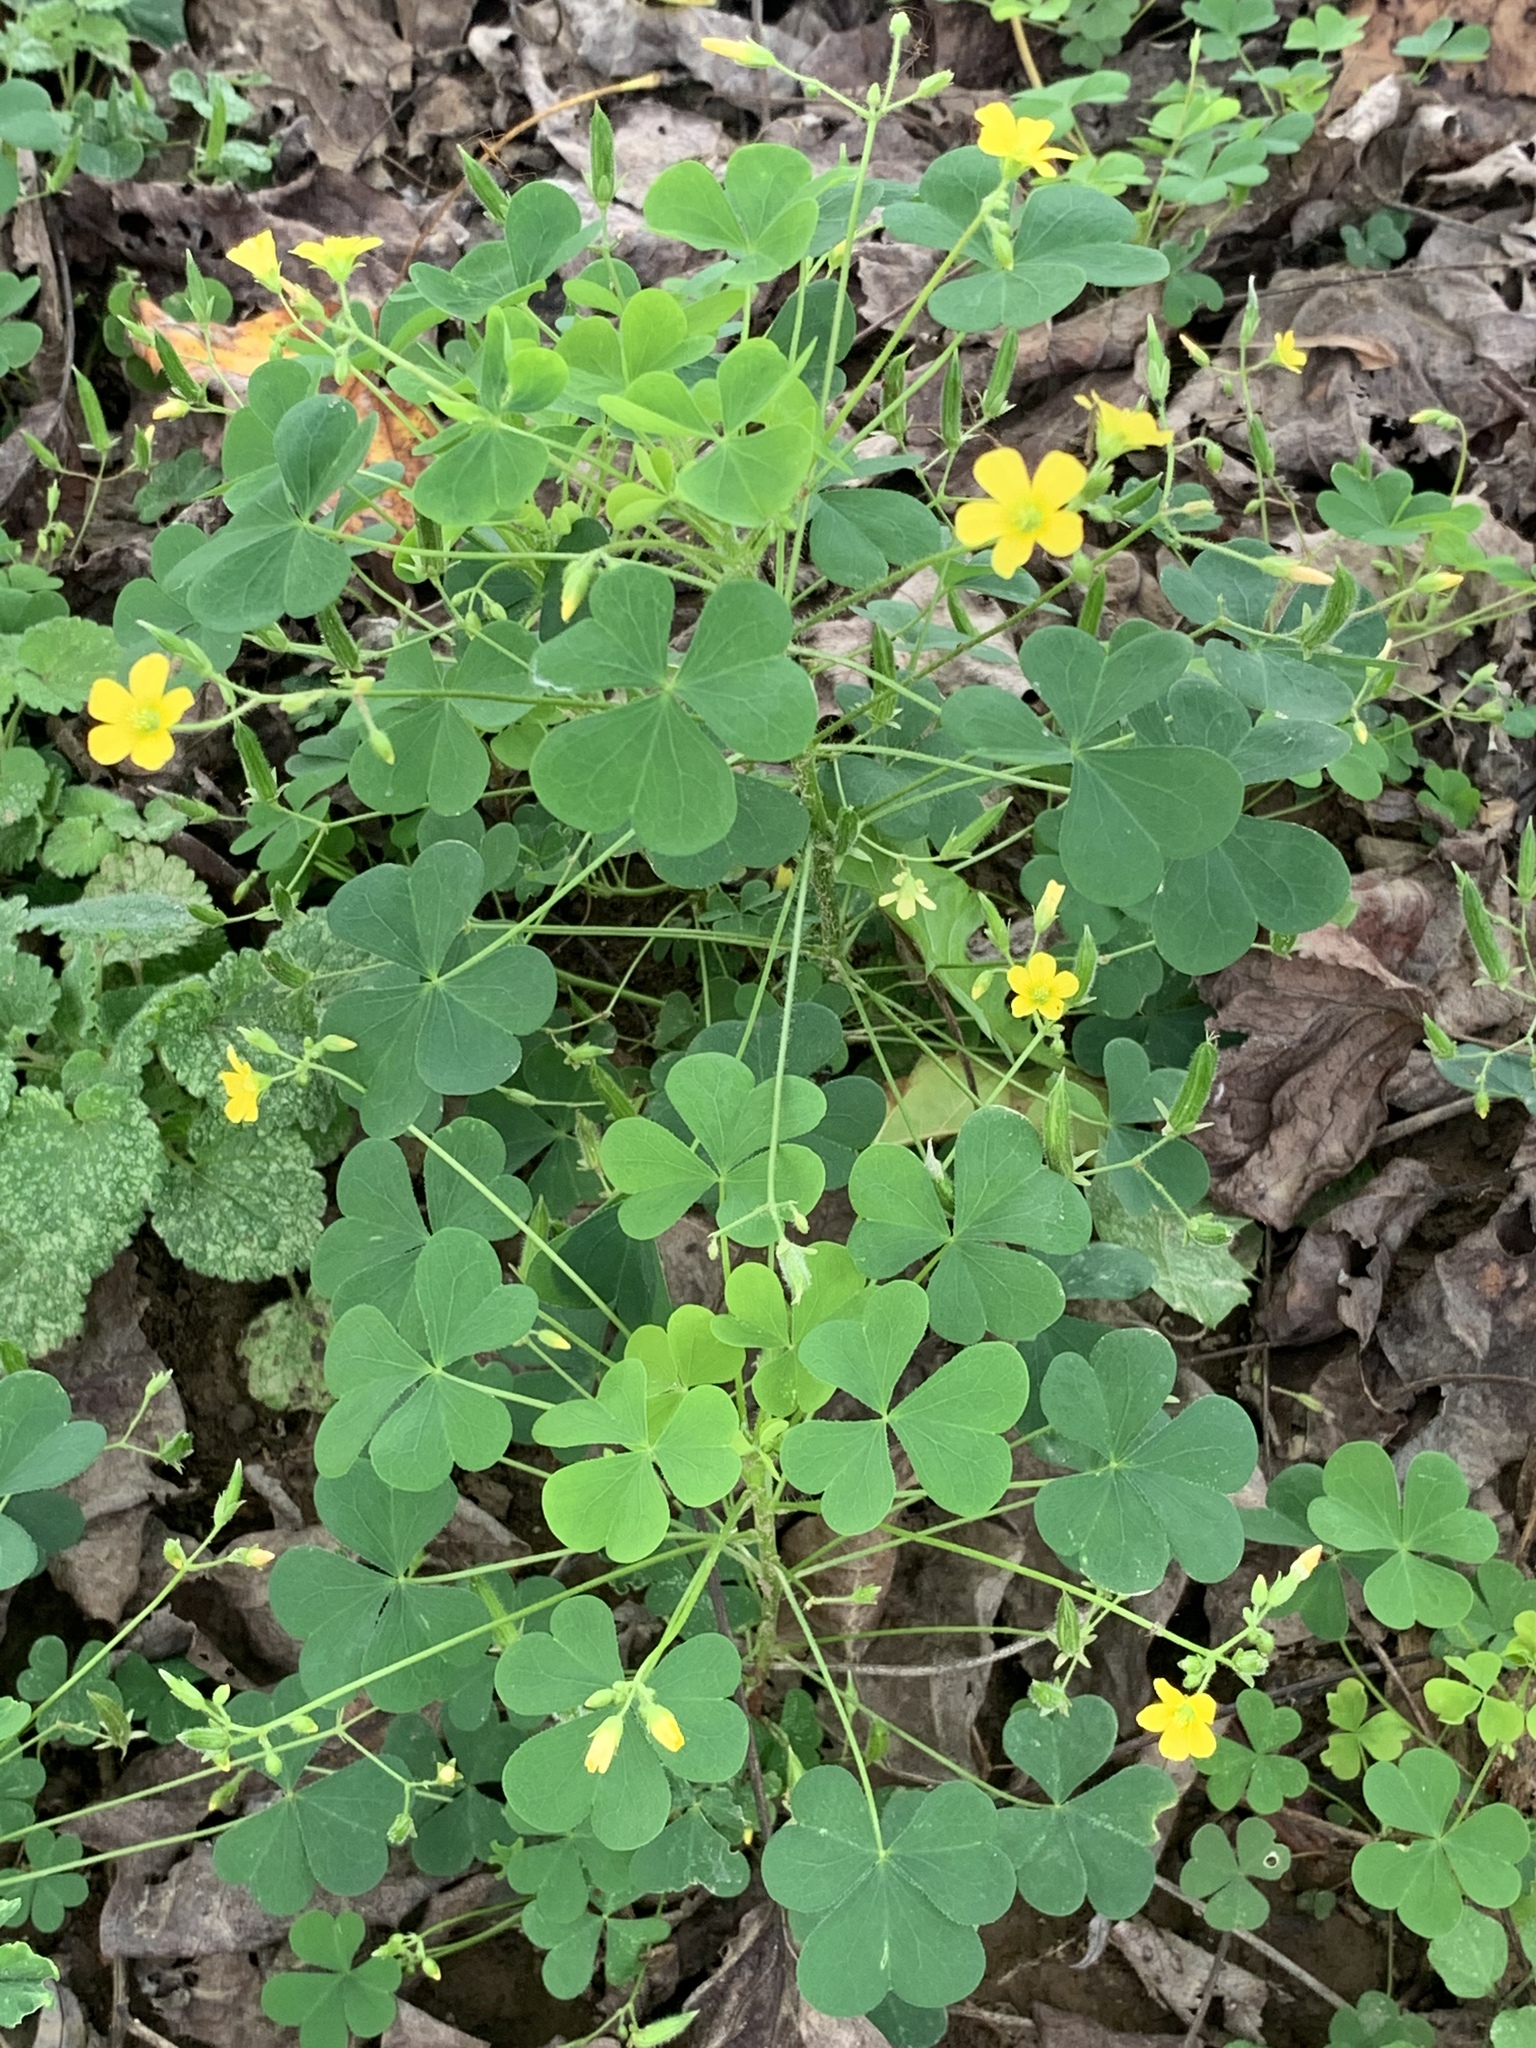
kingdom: Plantae
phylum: Tracheophyta
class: Magnoliopsida
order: Oxalidales
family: Oxalidaceae
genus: Oxalis
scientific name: Oxalis stricta
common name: Upright yellow-sorrel
